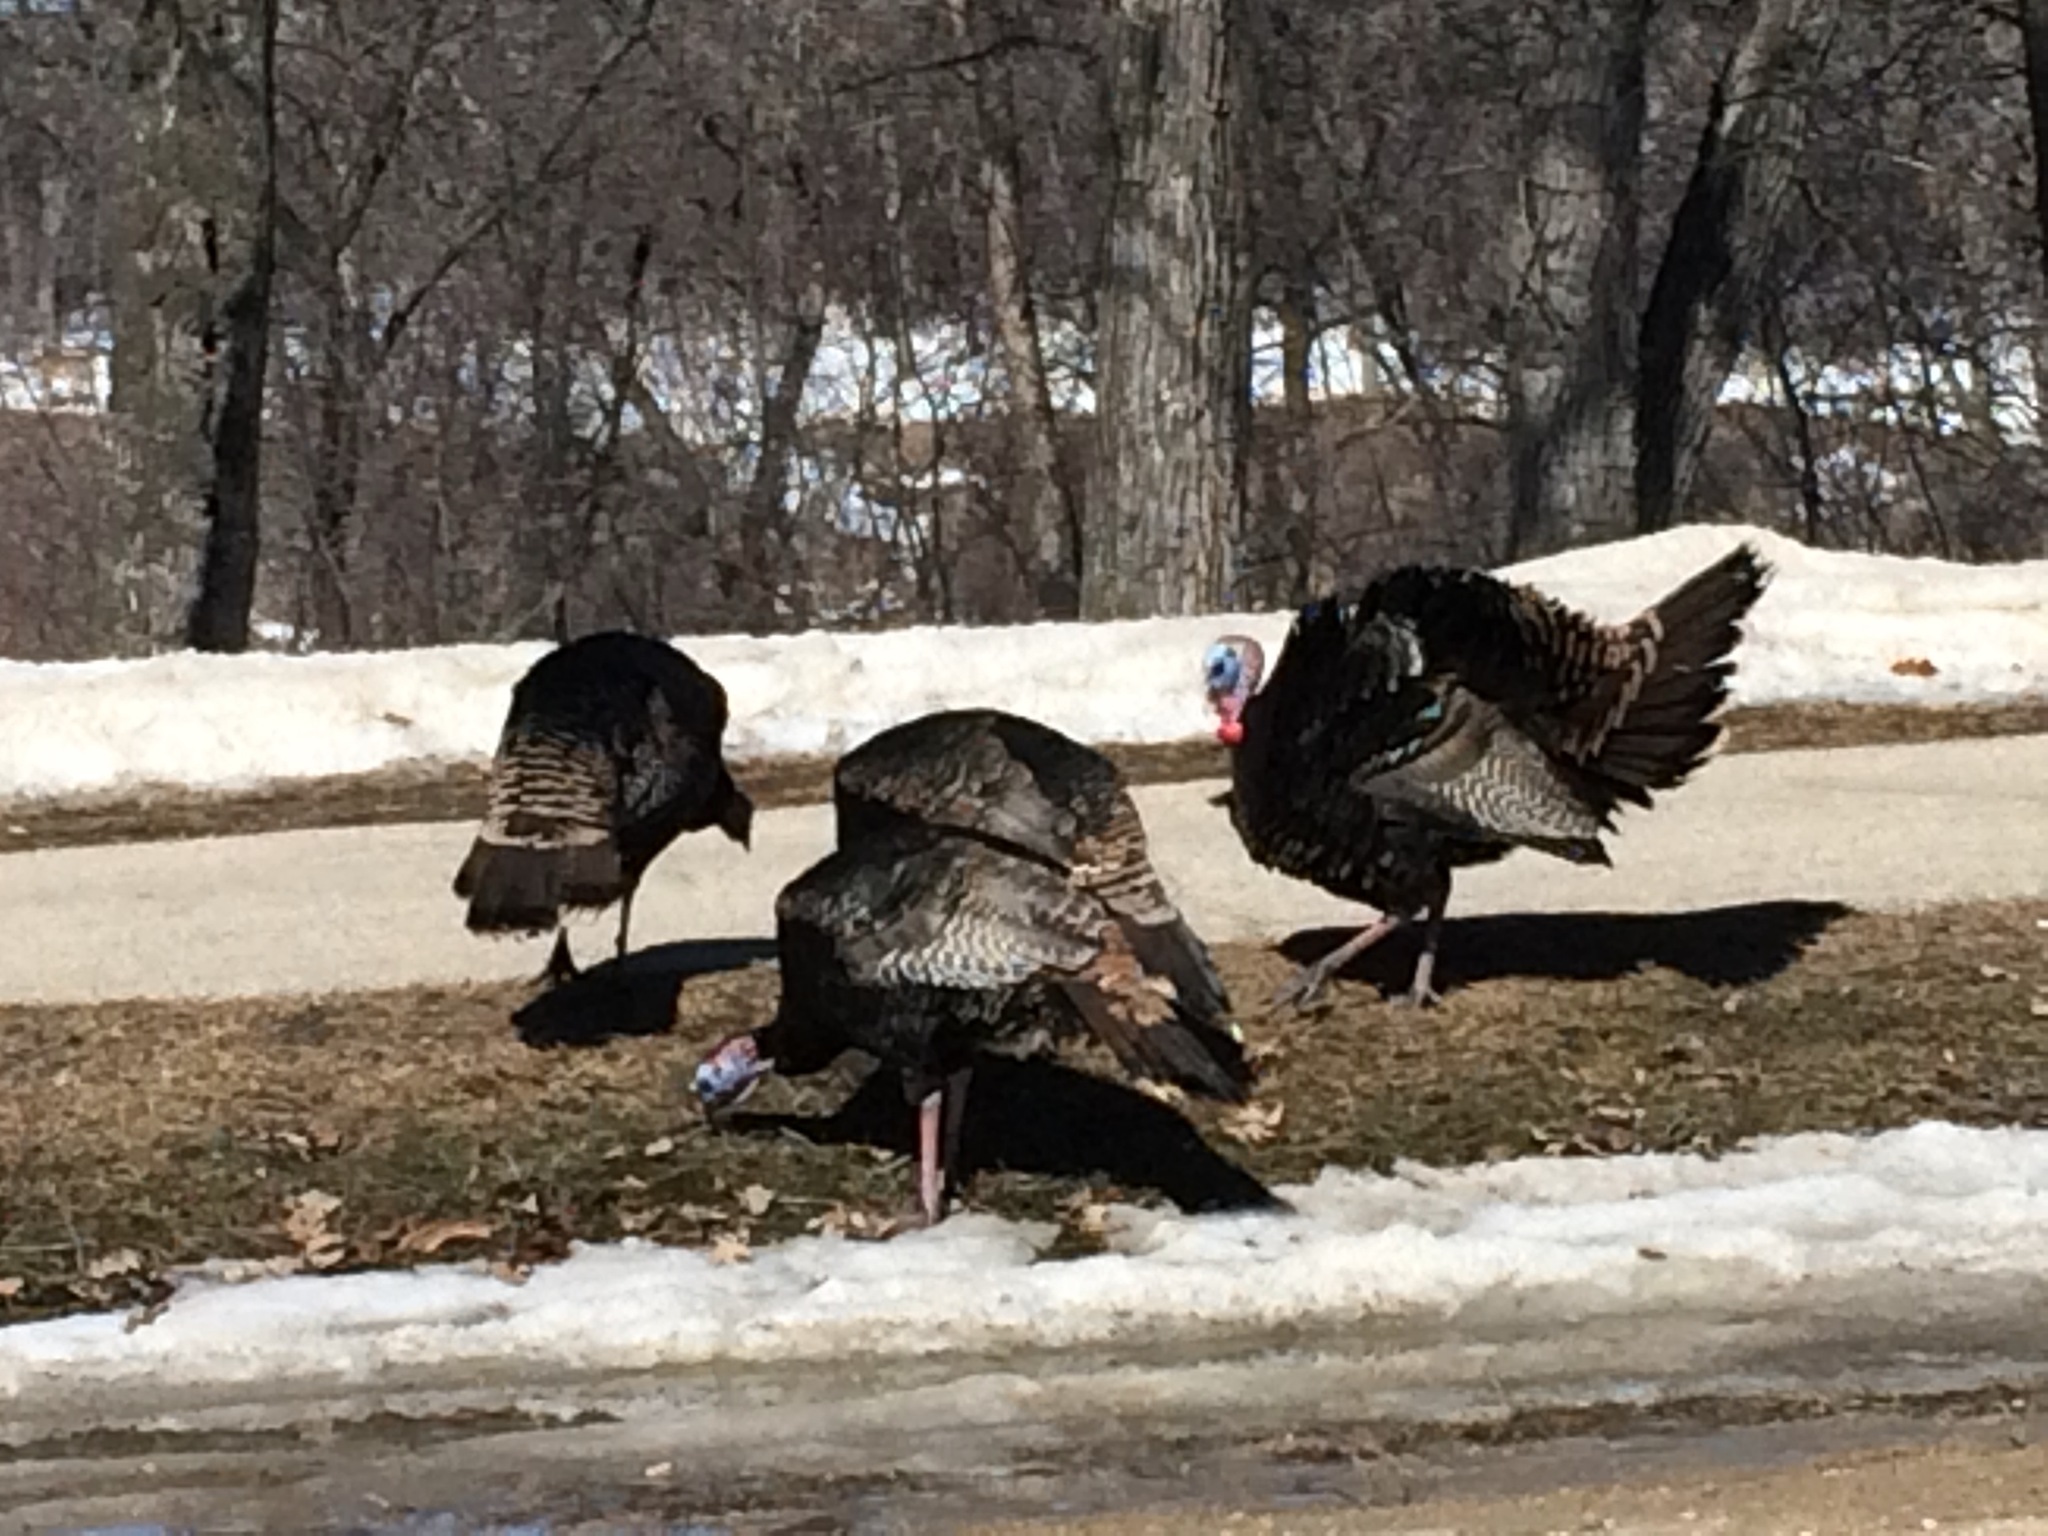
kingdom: Animalia
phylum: Chordata
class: Aves
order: Galliformes
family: Phasianidae
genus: Meleagris
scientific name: Meleagris gallopavo
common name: Wild turkey
